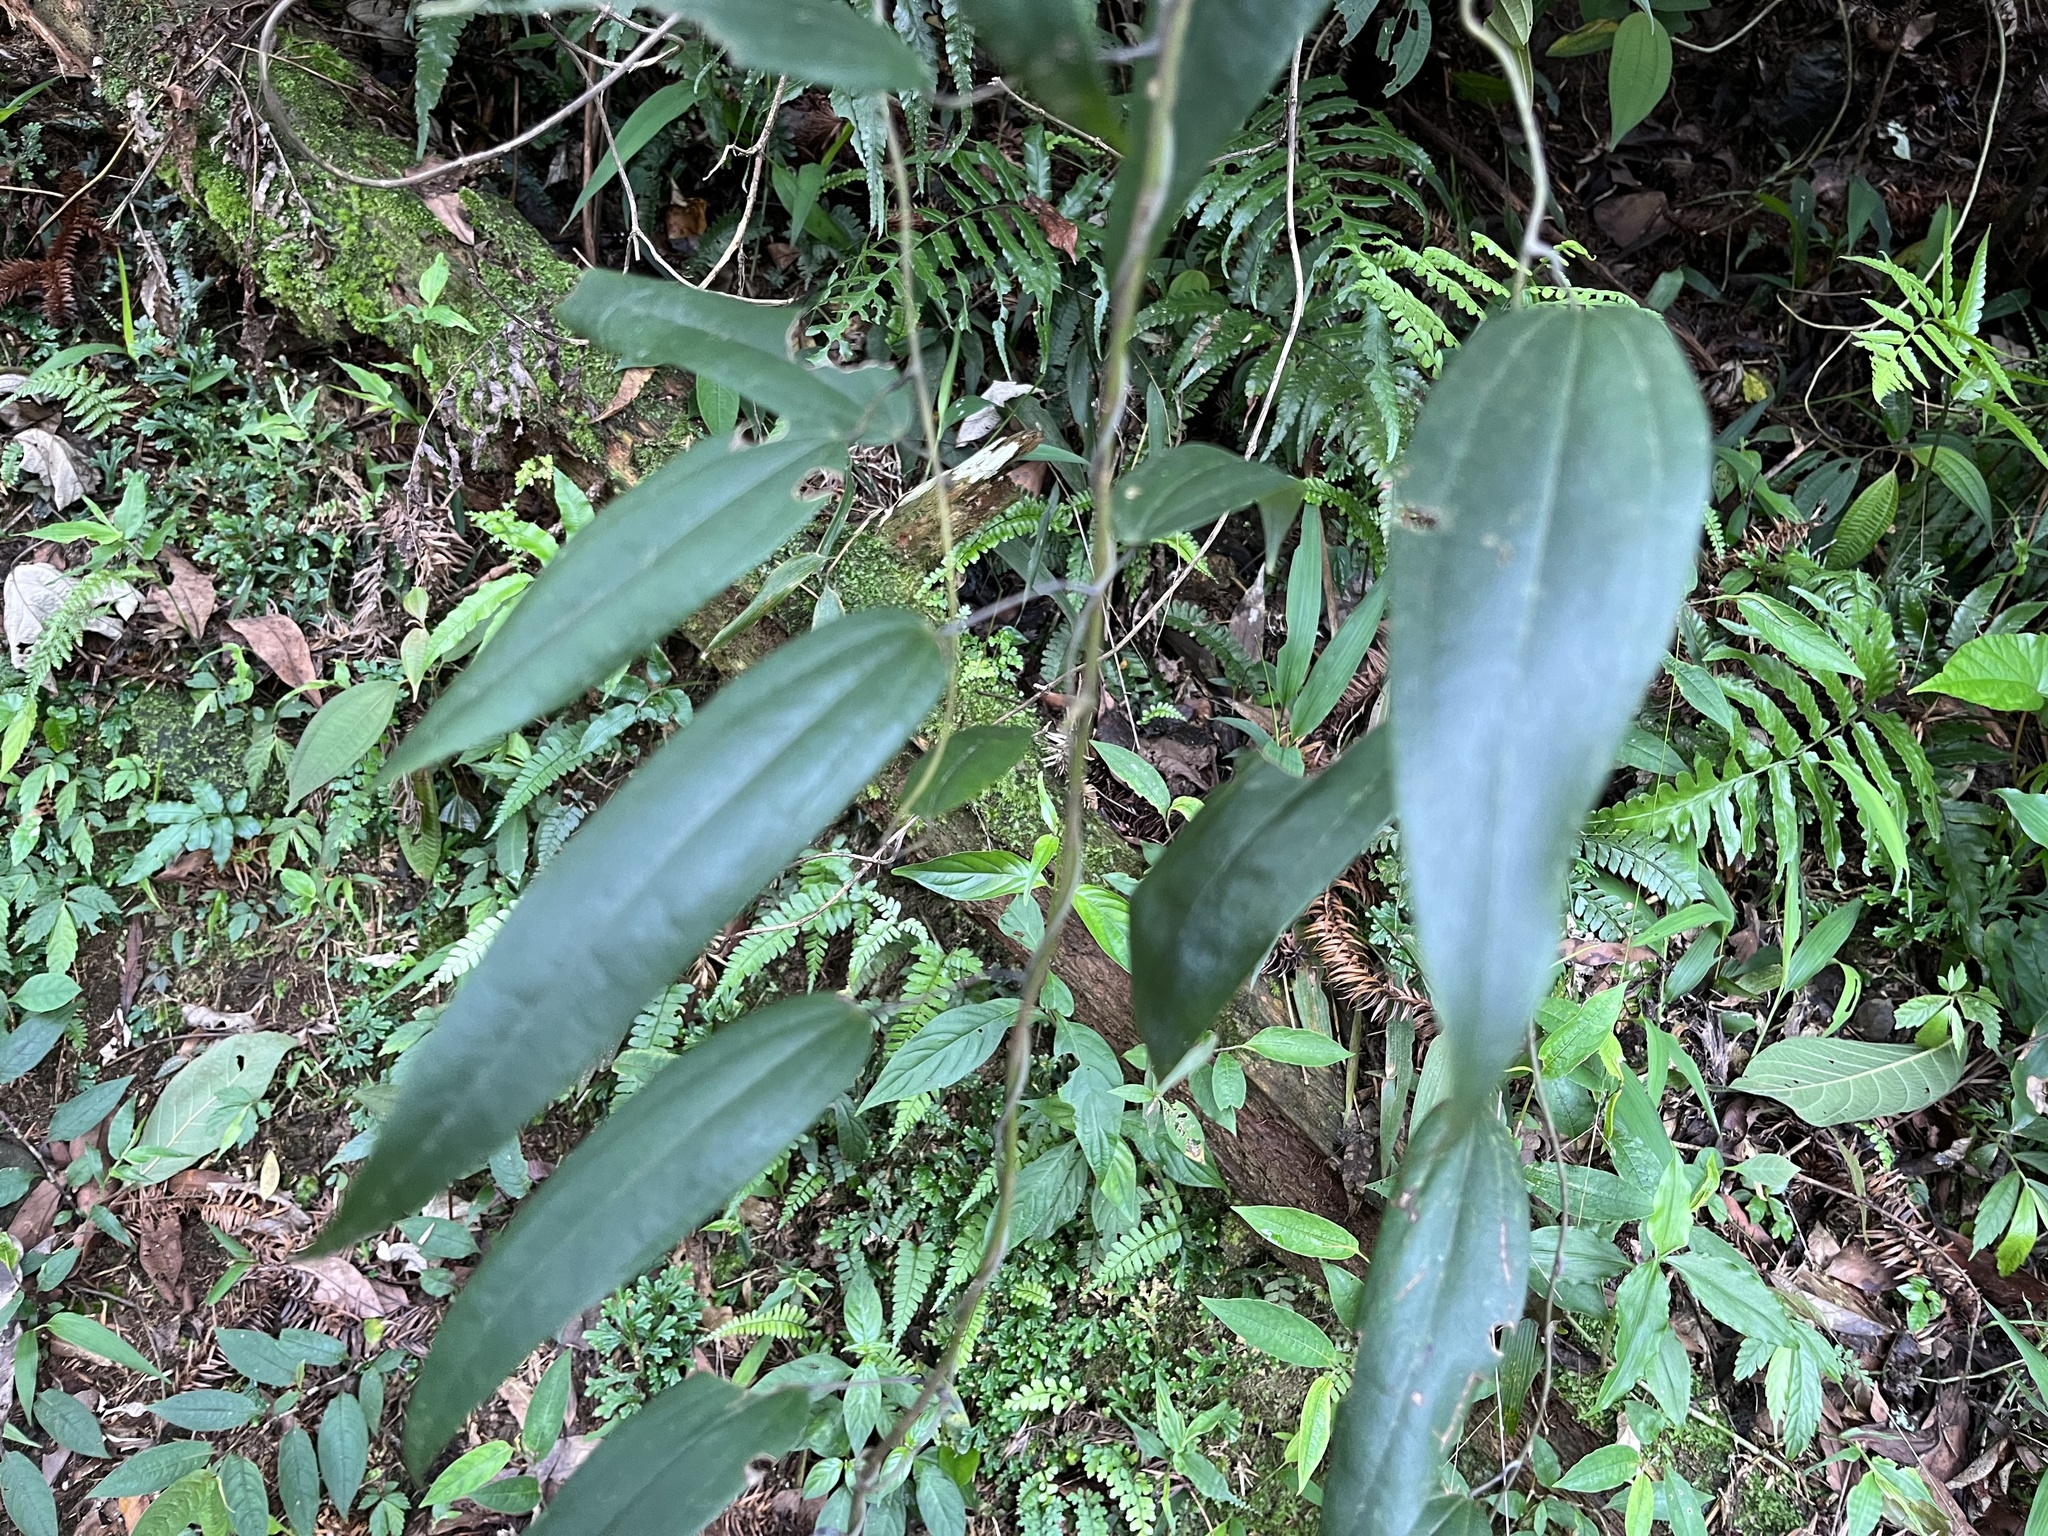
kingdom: Plantae
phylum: Tracheophyta
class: Liliopsida
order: Dioscoreales
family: Dioscoreaceae
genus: Dioscorea
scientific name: Dioscorea cirrhosa
